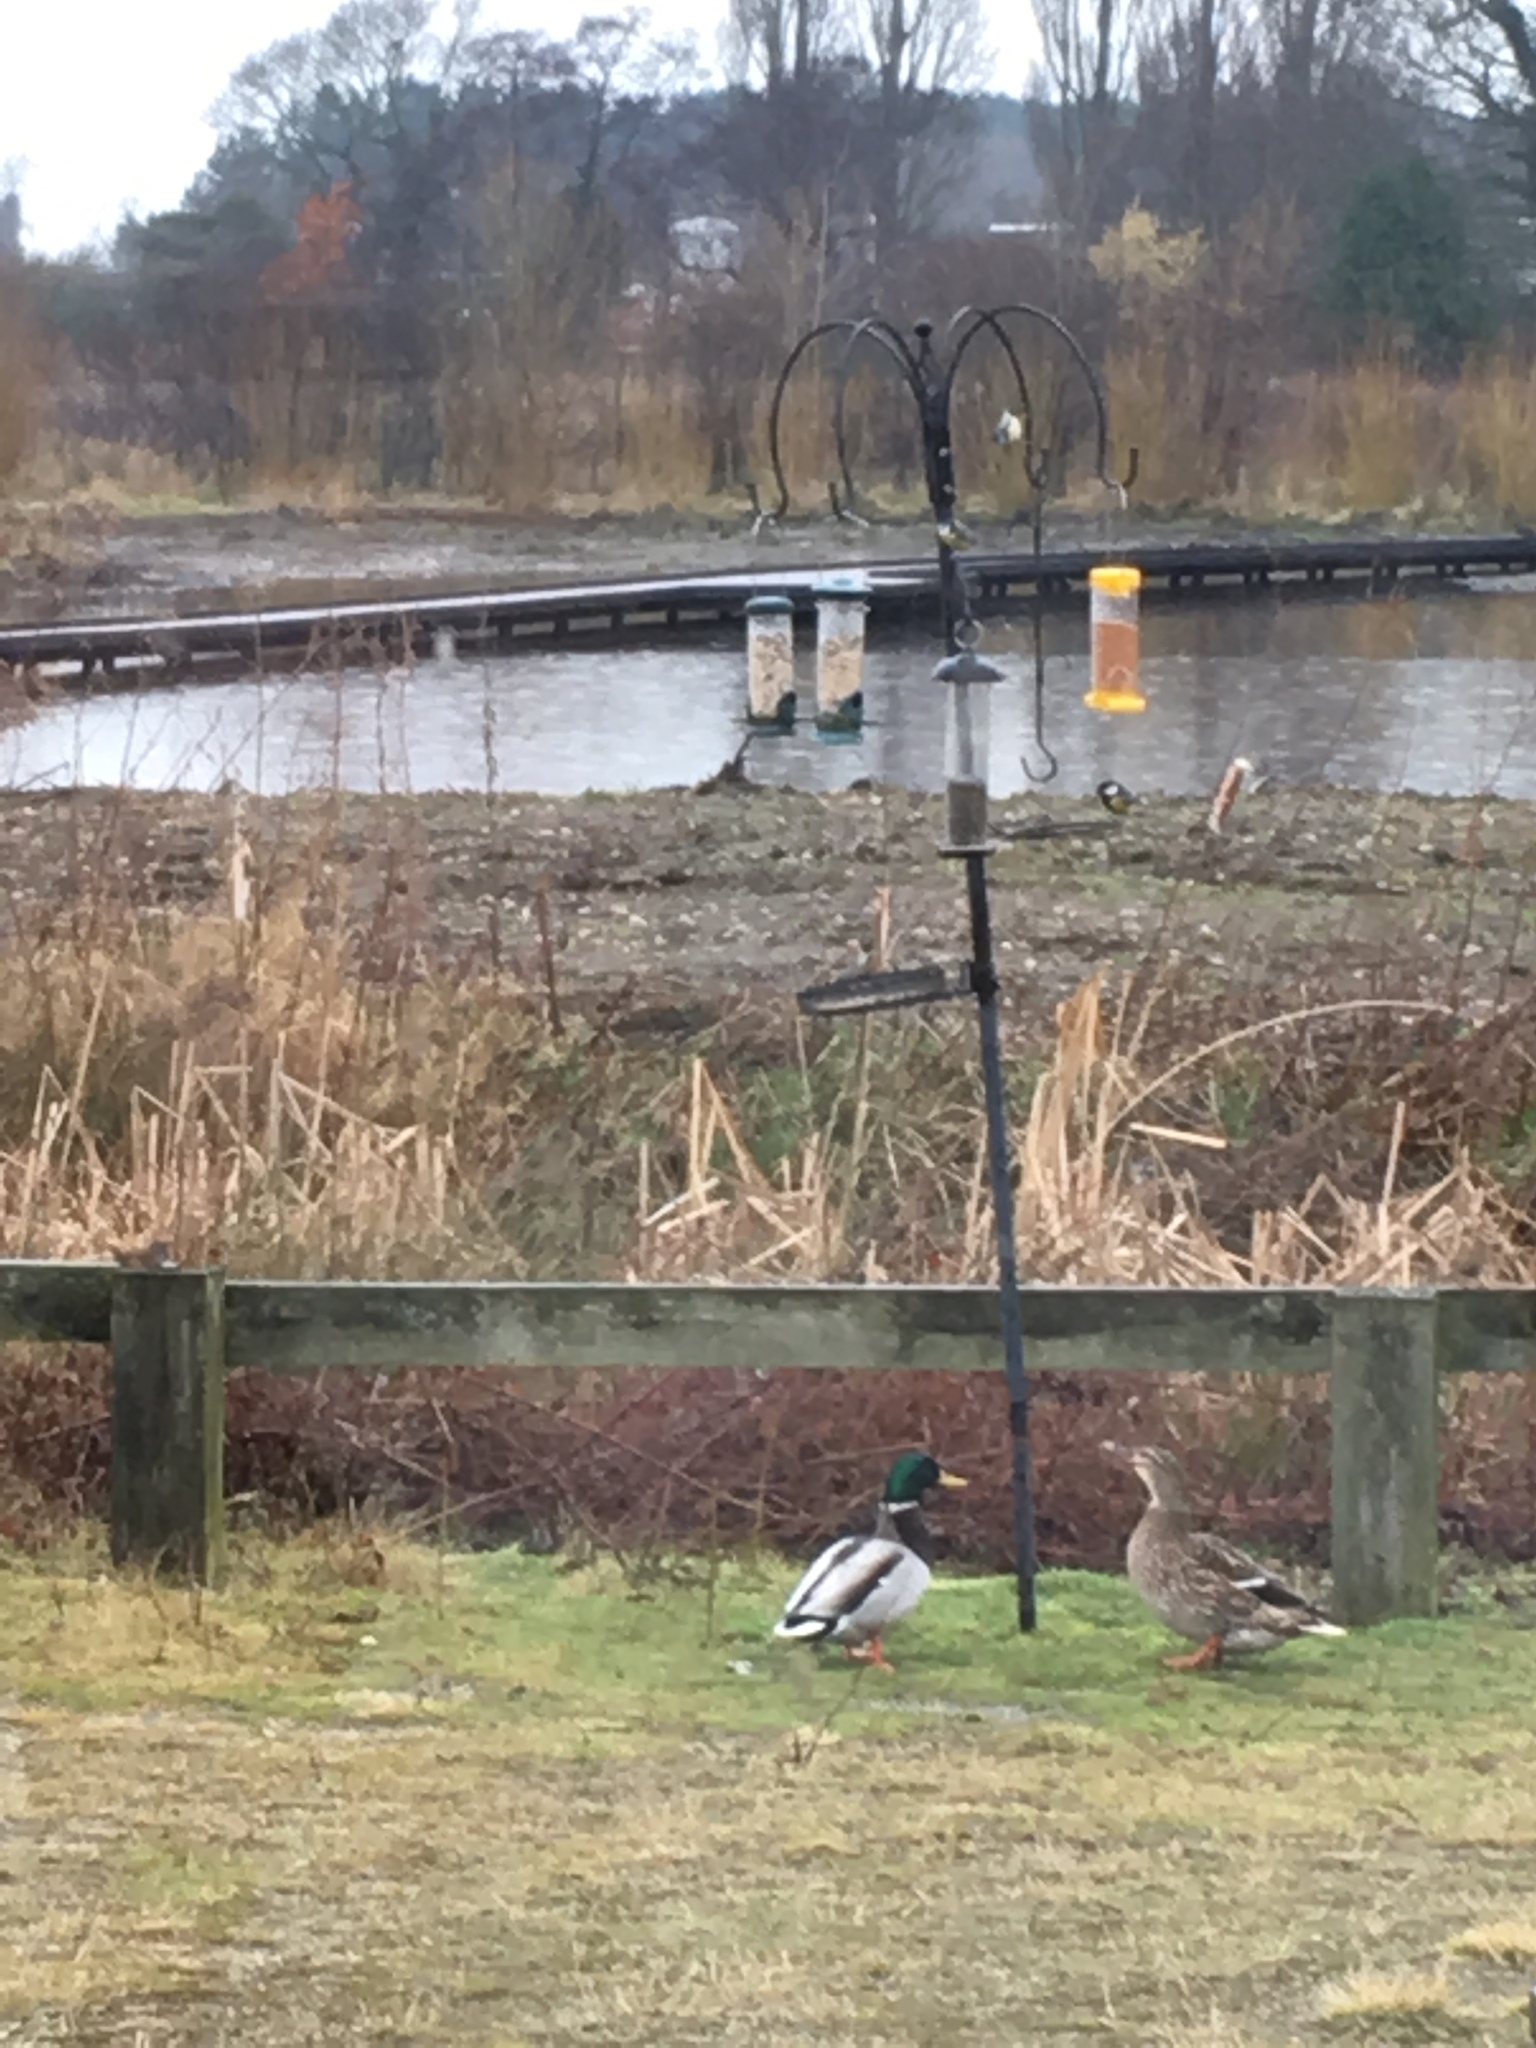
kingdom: Animalia
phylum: Chordata
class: Aves
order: Anseriformes
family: Anatidae
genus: Anas
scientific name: Anas platyrhynchos
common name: Mallard
